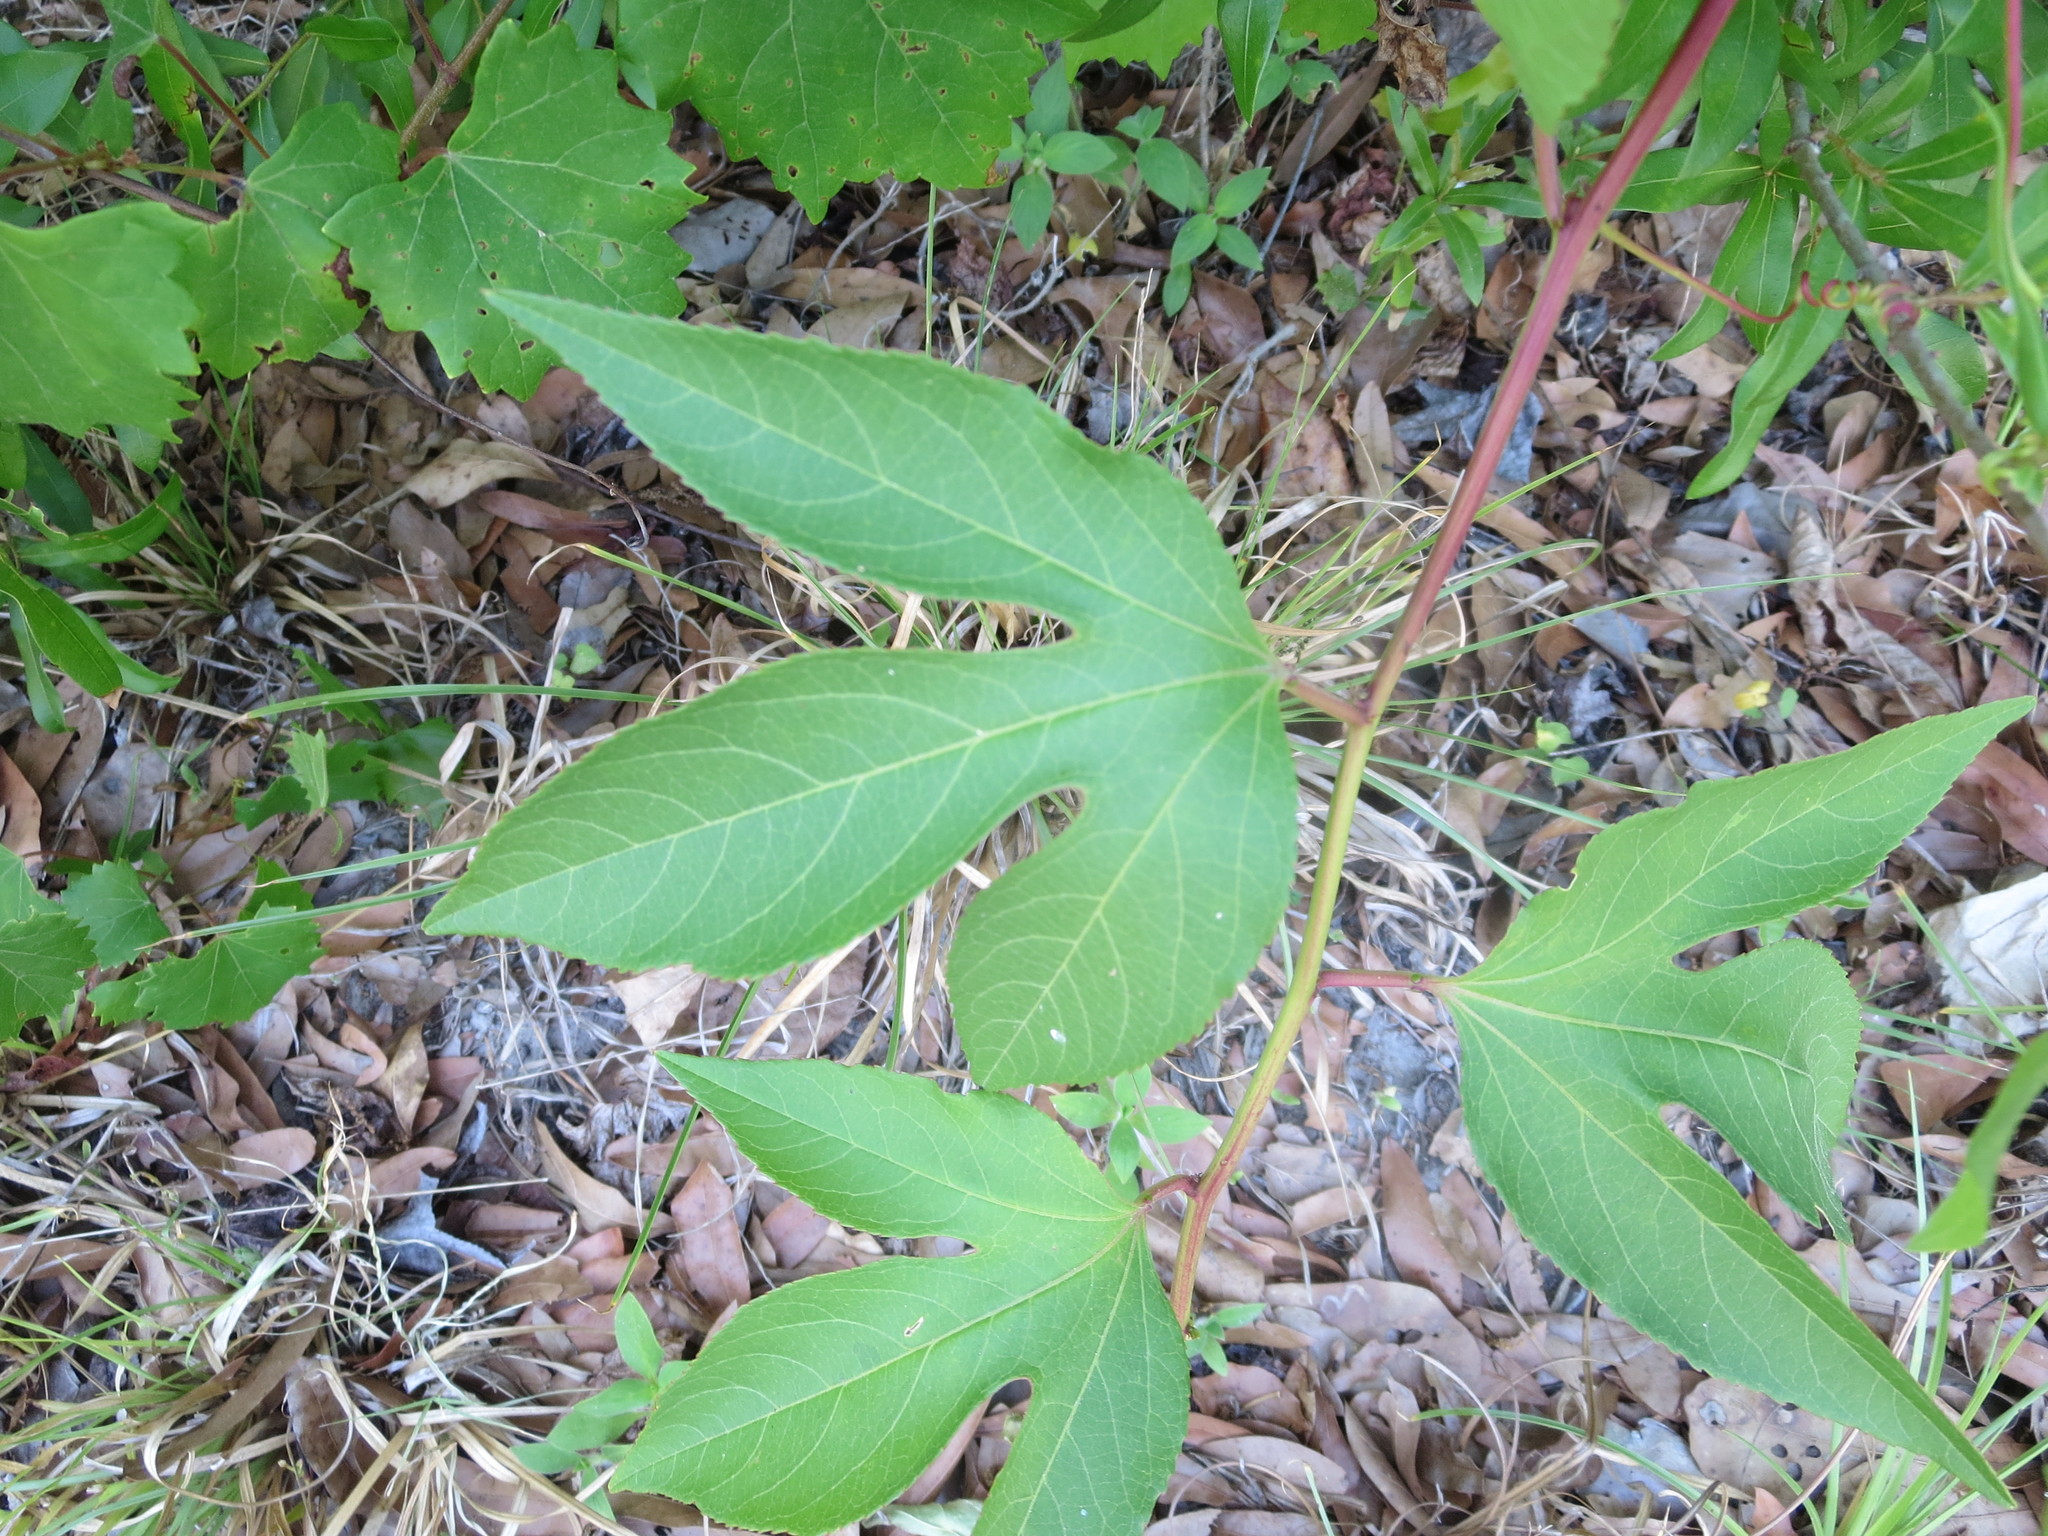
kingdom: Plantae
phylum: Tracheophyta
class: Magnoliopsida
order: Malpighiales
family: Passifloraceae
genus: Passiflora
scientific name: Passiflora incarnata
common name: Apricot-vine
